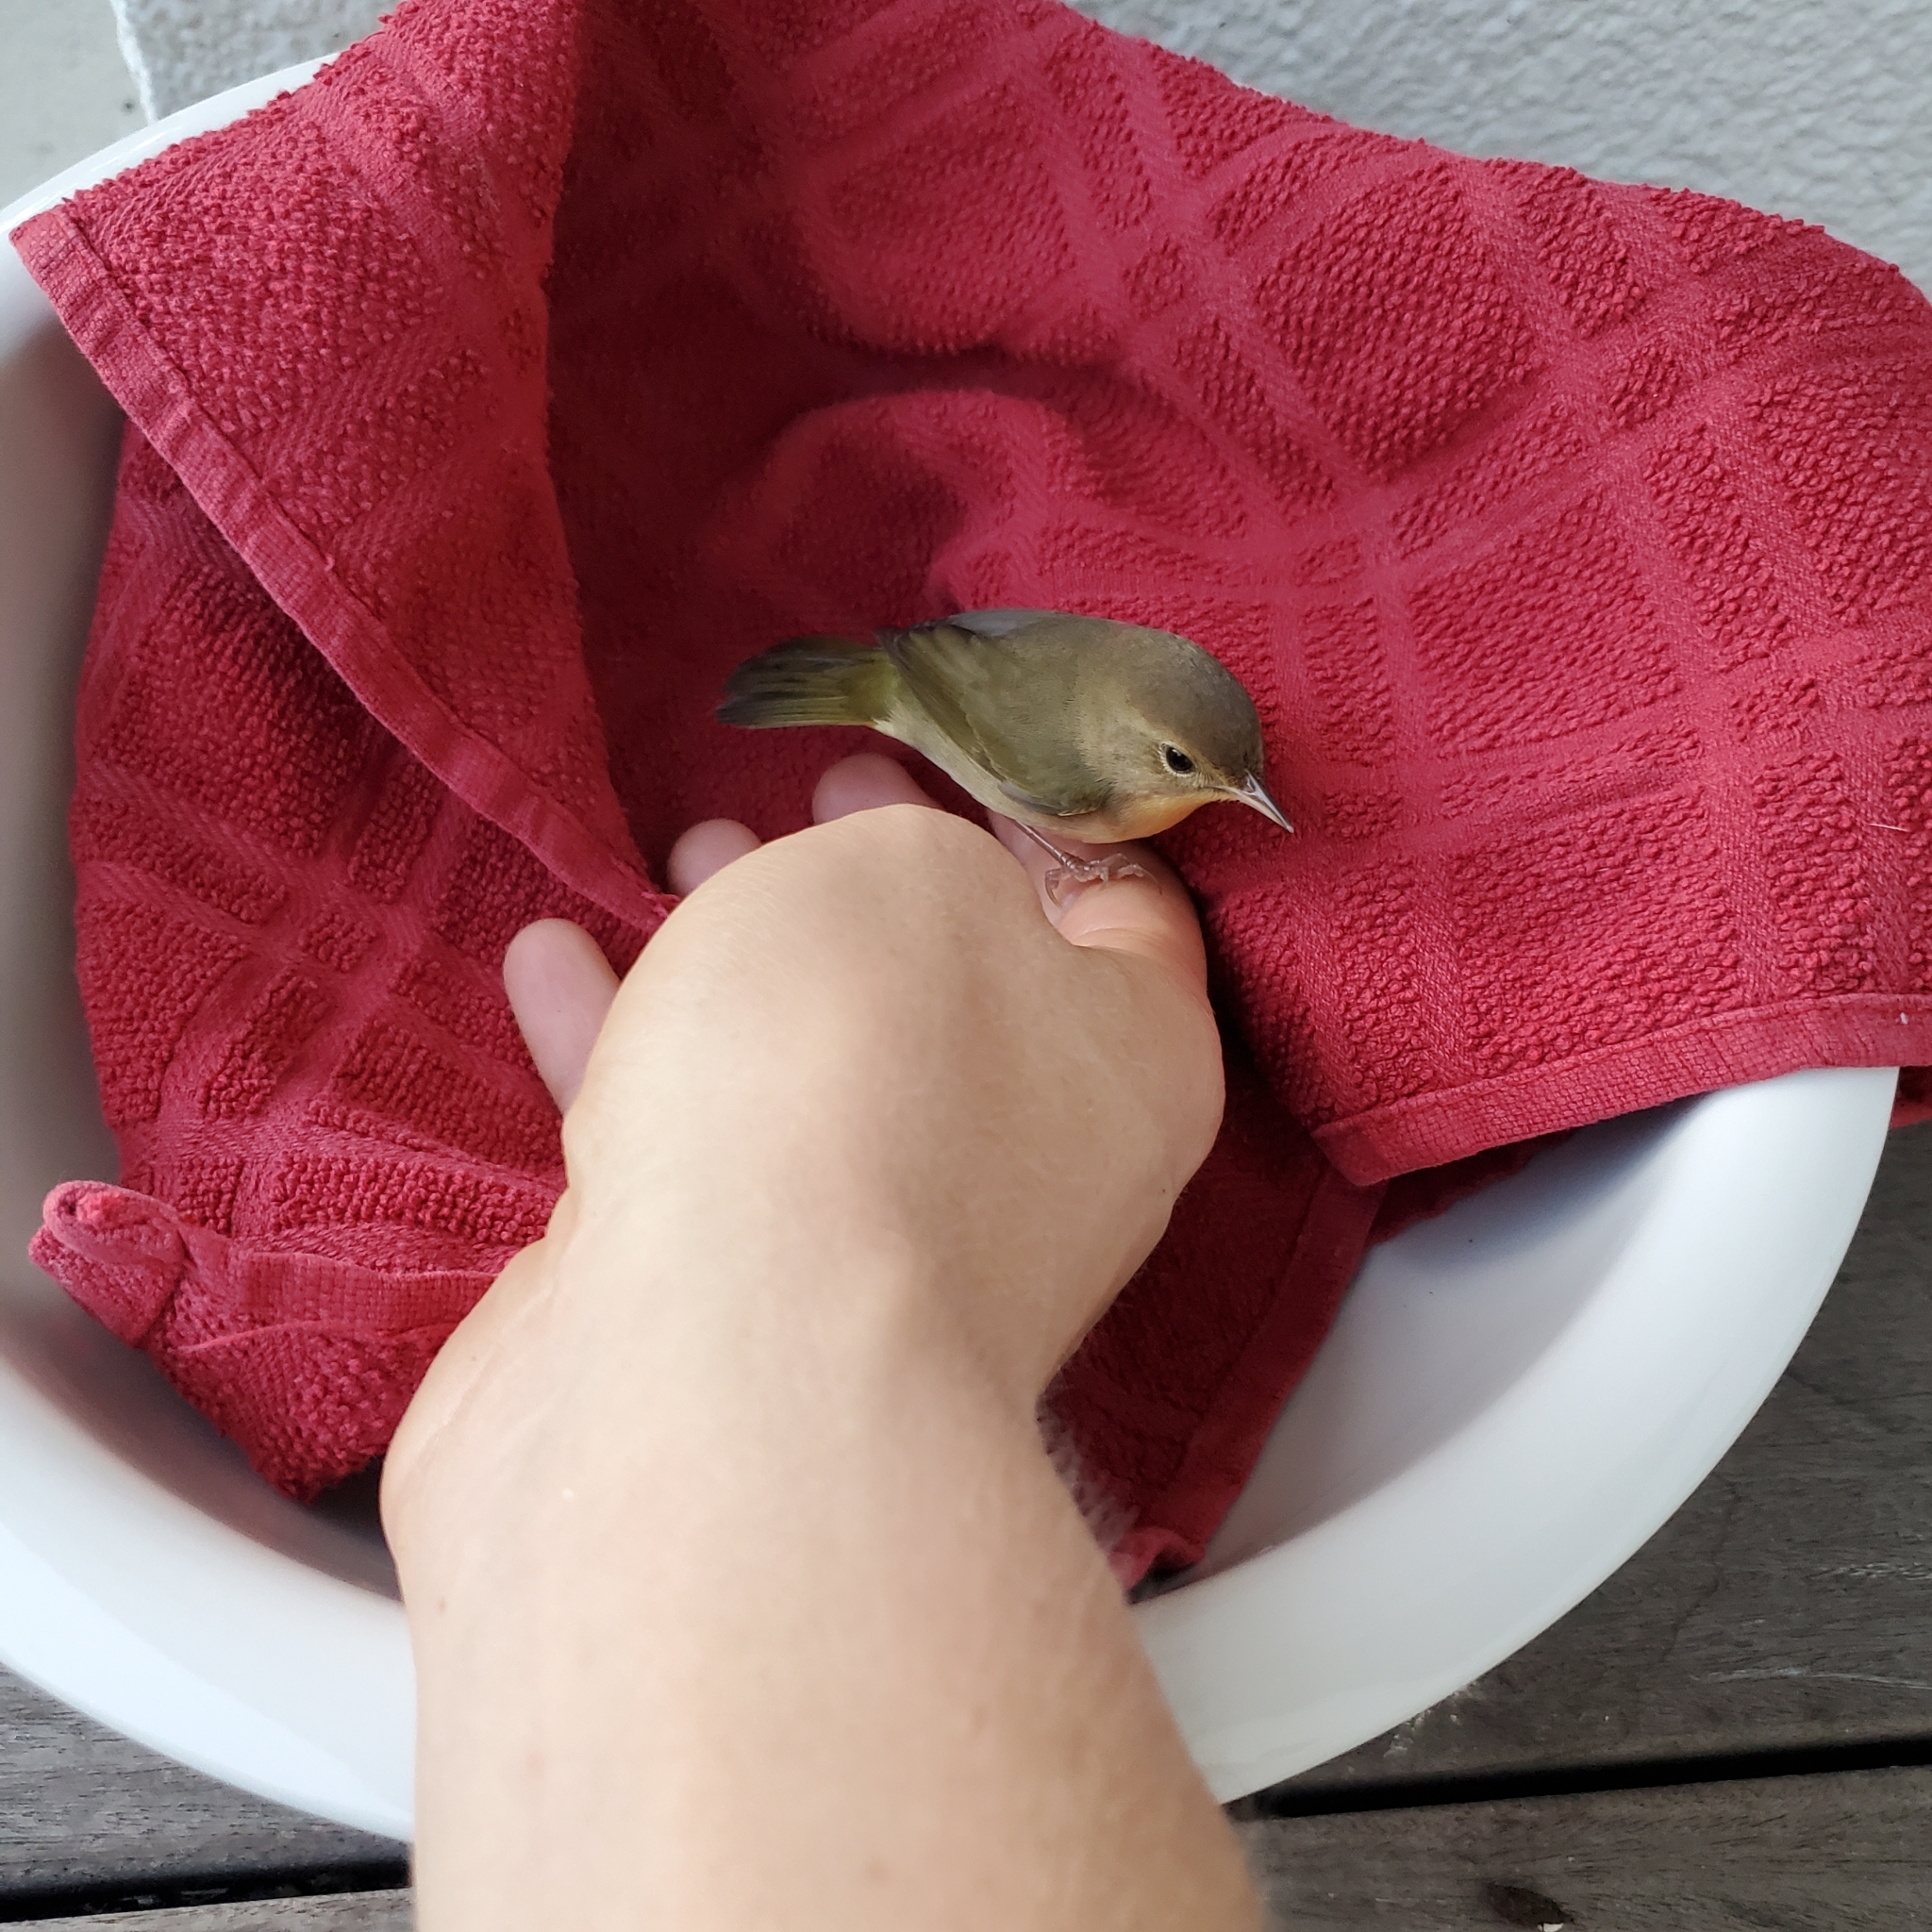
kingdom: Animalia
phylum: Chordata
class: Aves
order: Passeriformes
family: Parulidae
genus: Geothlypis
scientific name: Geothlypis trichas
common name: Common yellowthroat
